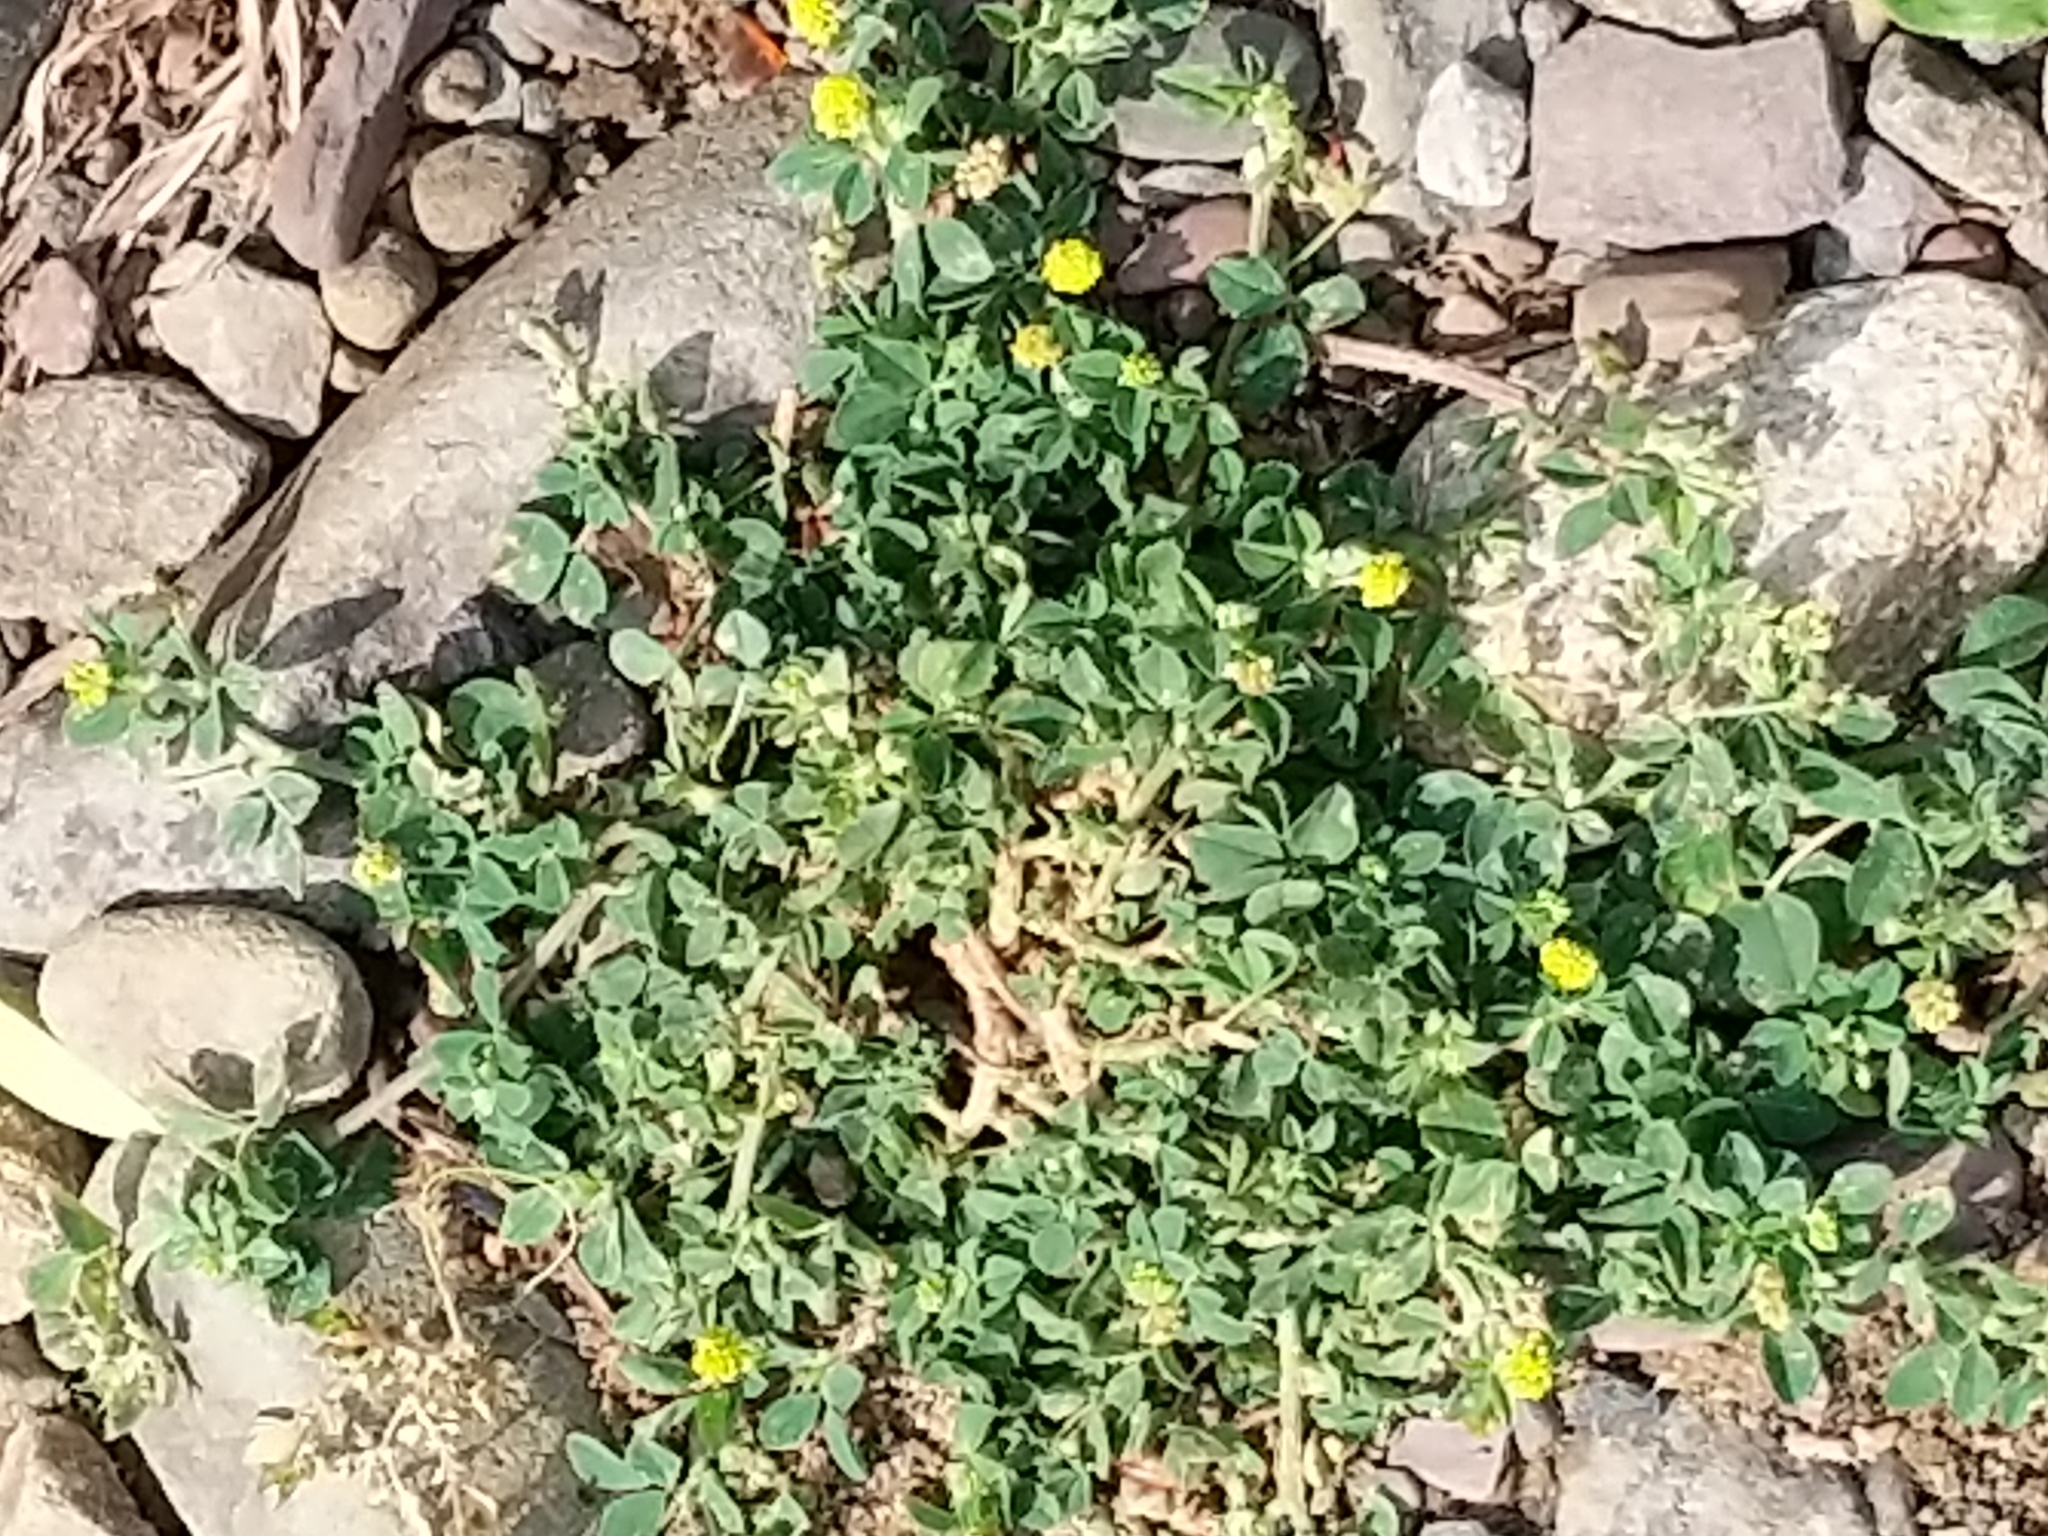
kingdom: Plantae
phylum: Tracheophyta
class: Magnoliopsida
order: Fabales
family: Fabaceae
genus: Medicago
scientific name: Medicago lupulina
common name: Black medick
